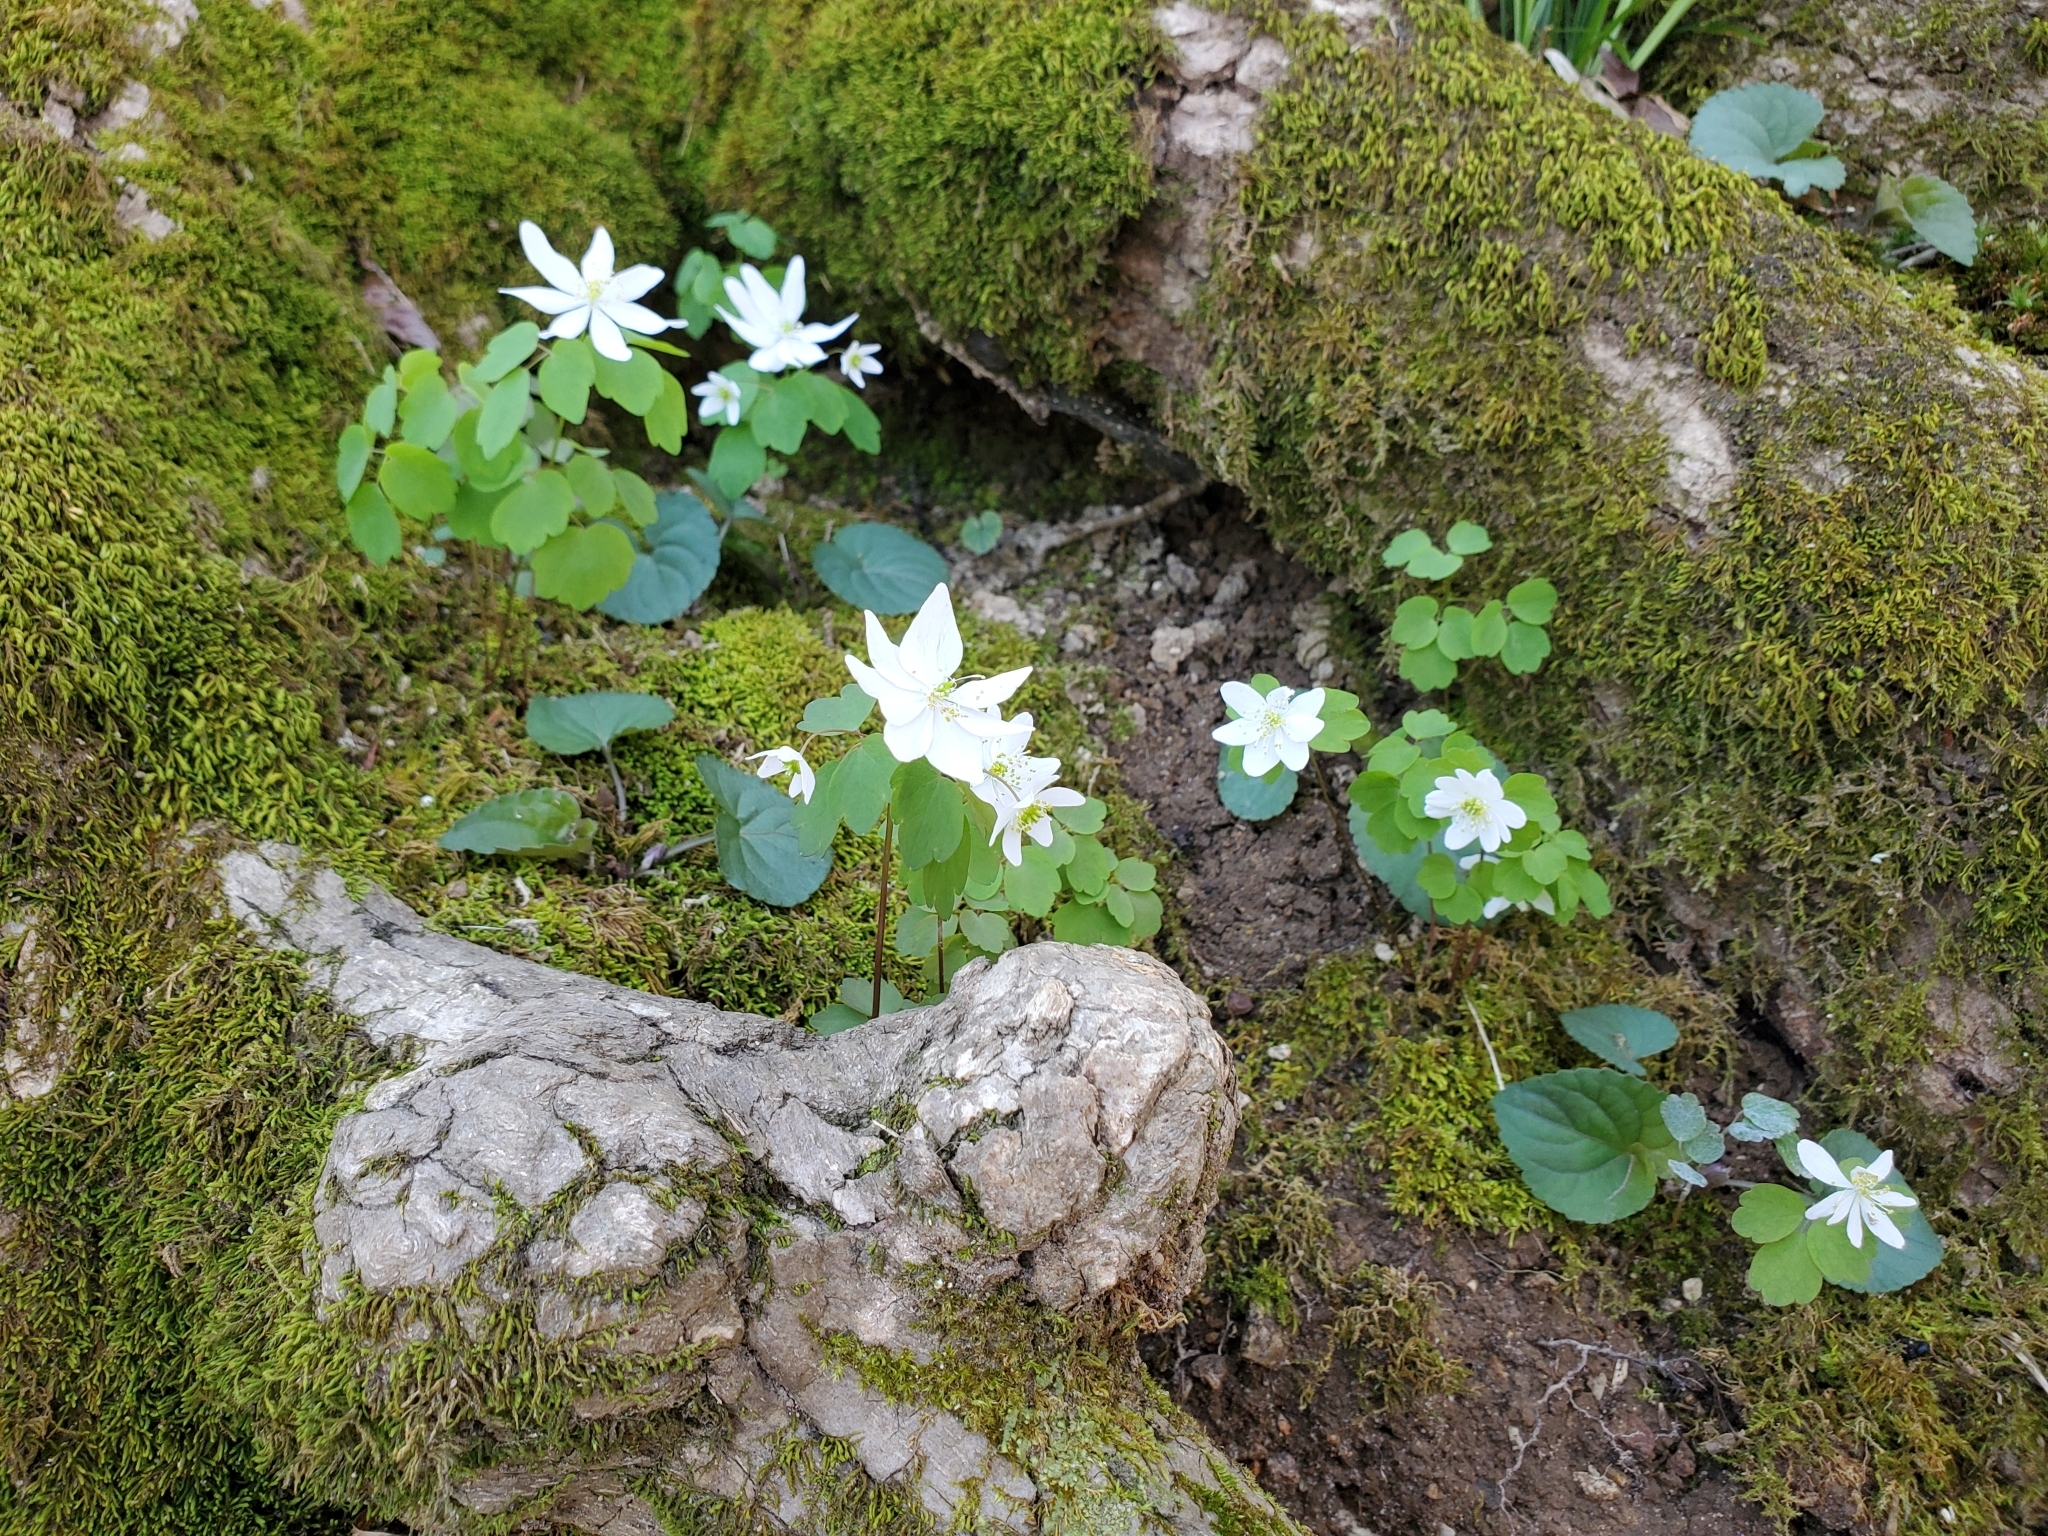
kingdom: Plantae
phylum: Tracheophyta
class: Magnoliopsida
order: Ranunculales
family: Ranunculaceae
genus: Thalictrum
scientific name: Thalictrum thalictroides
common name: Rue-anemone
